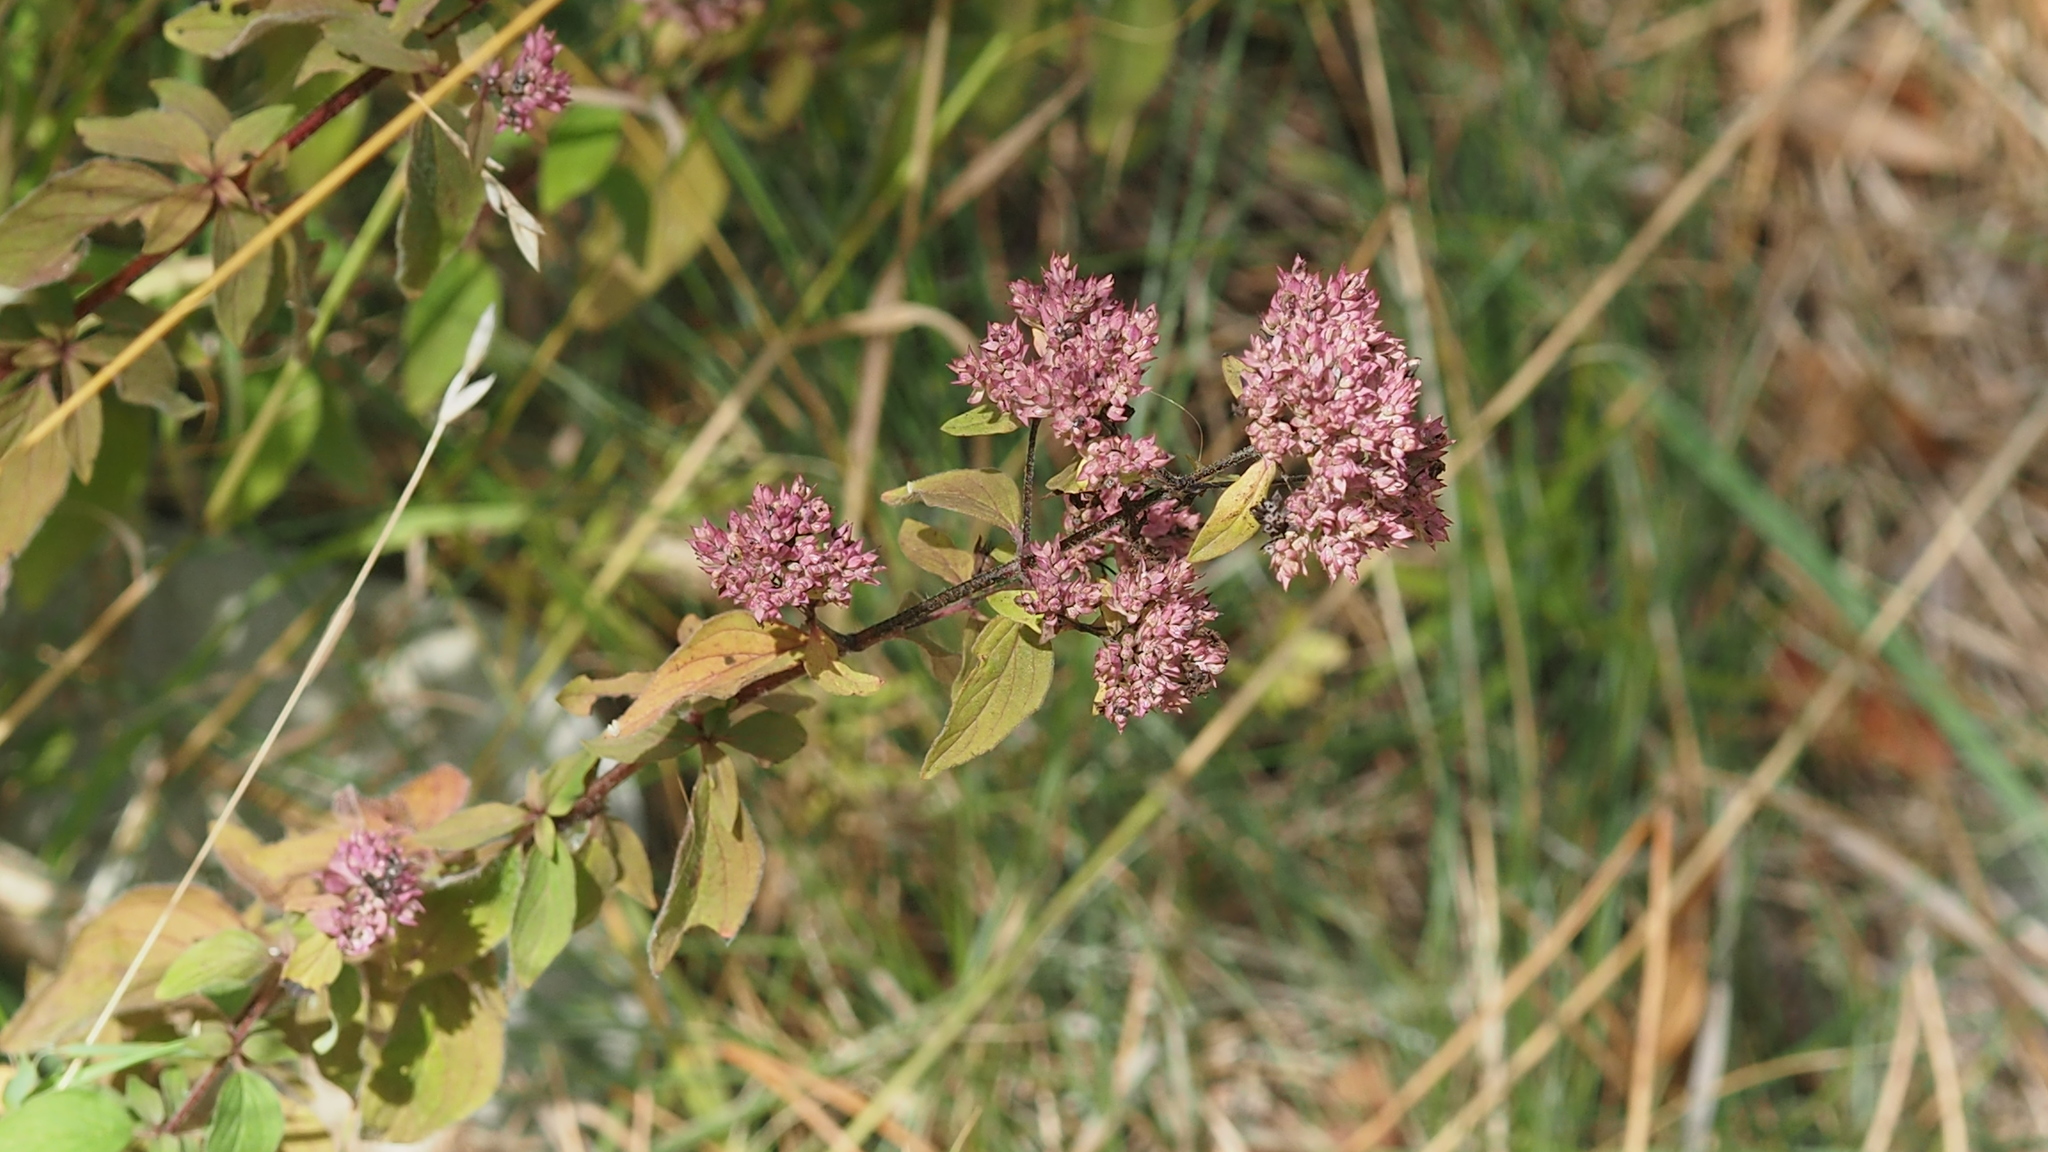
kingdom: Plantae
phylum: Tracheophyta
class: Magnoliopsida
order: Lamiales
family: Lamiaceae
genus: Origanum
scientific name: Origanum vulgare
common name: Wild marjoram
